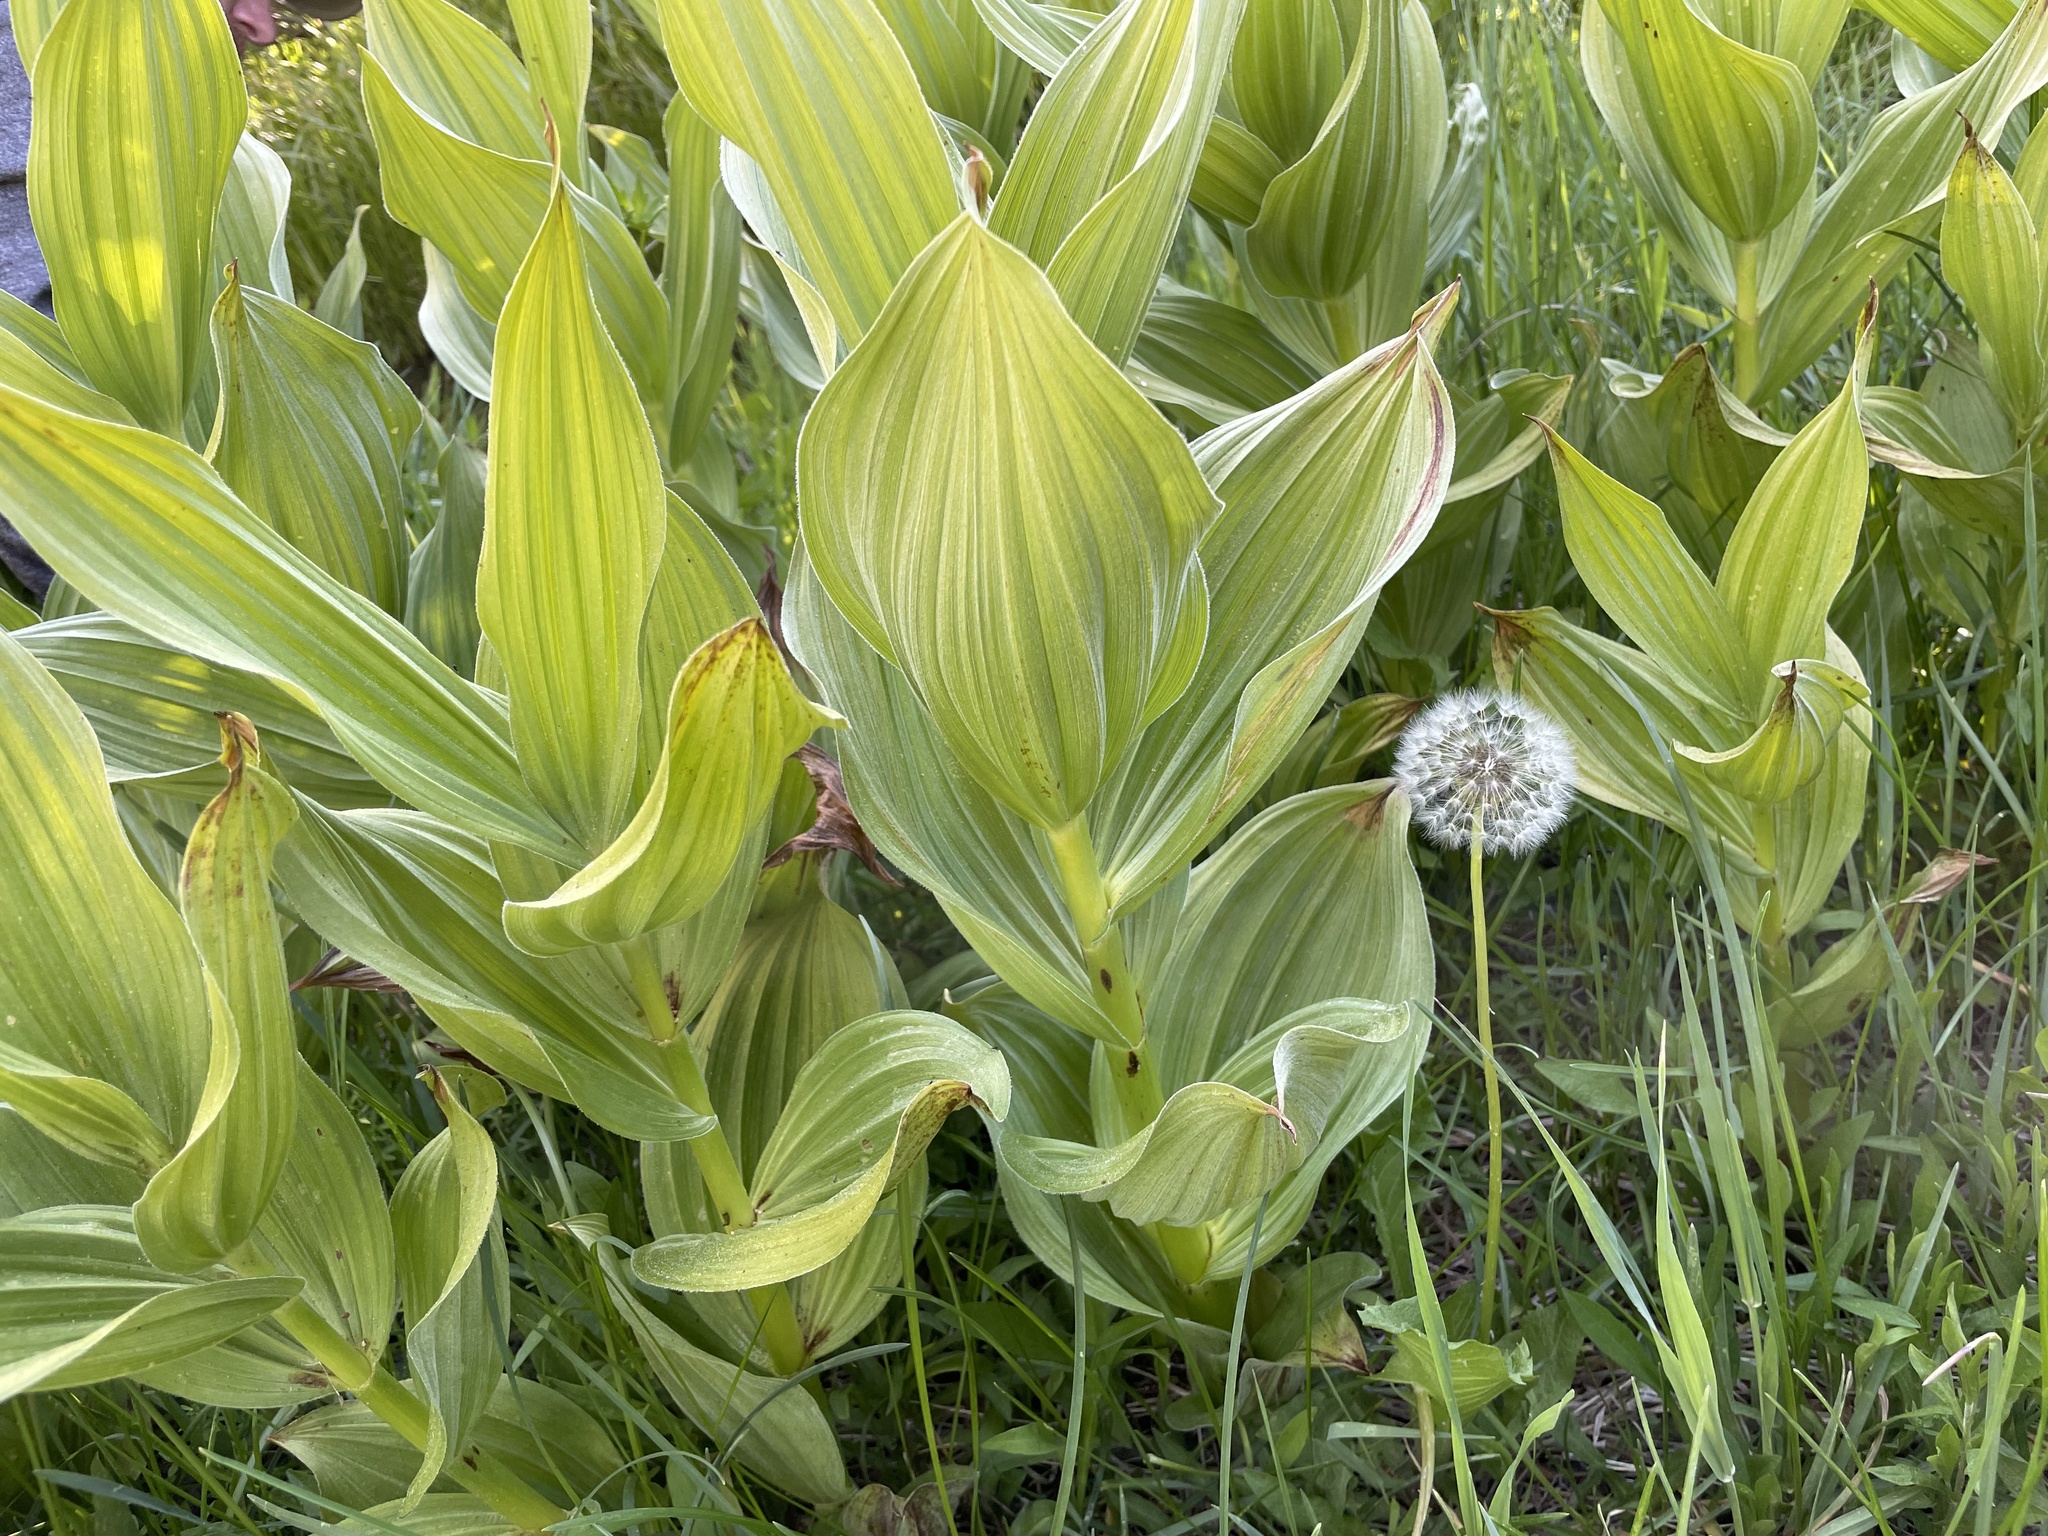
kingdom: Plantae
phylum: Tracheophyta
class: Liliopsida
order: Liliales
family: Melanthiaceae
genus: Veratrum
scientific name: Veratrum californicum
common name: California veratrum
